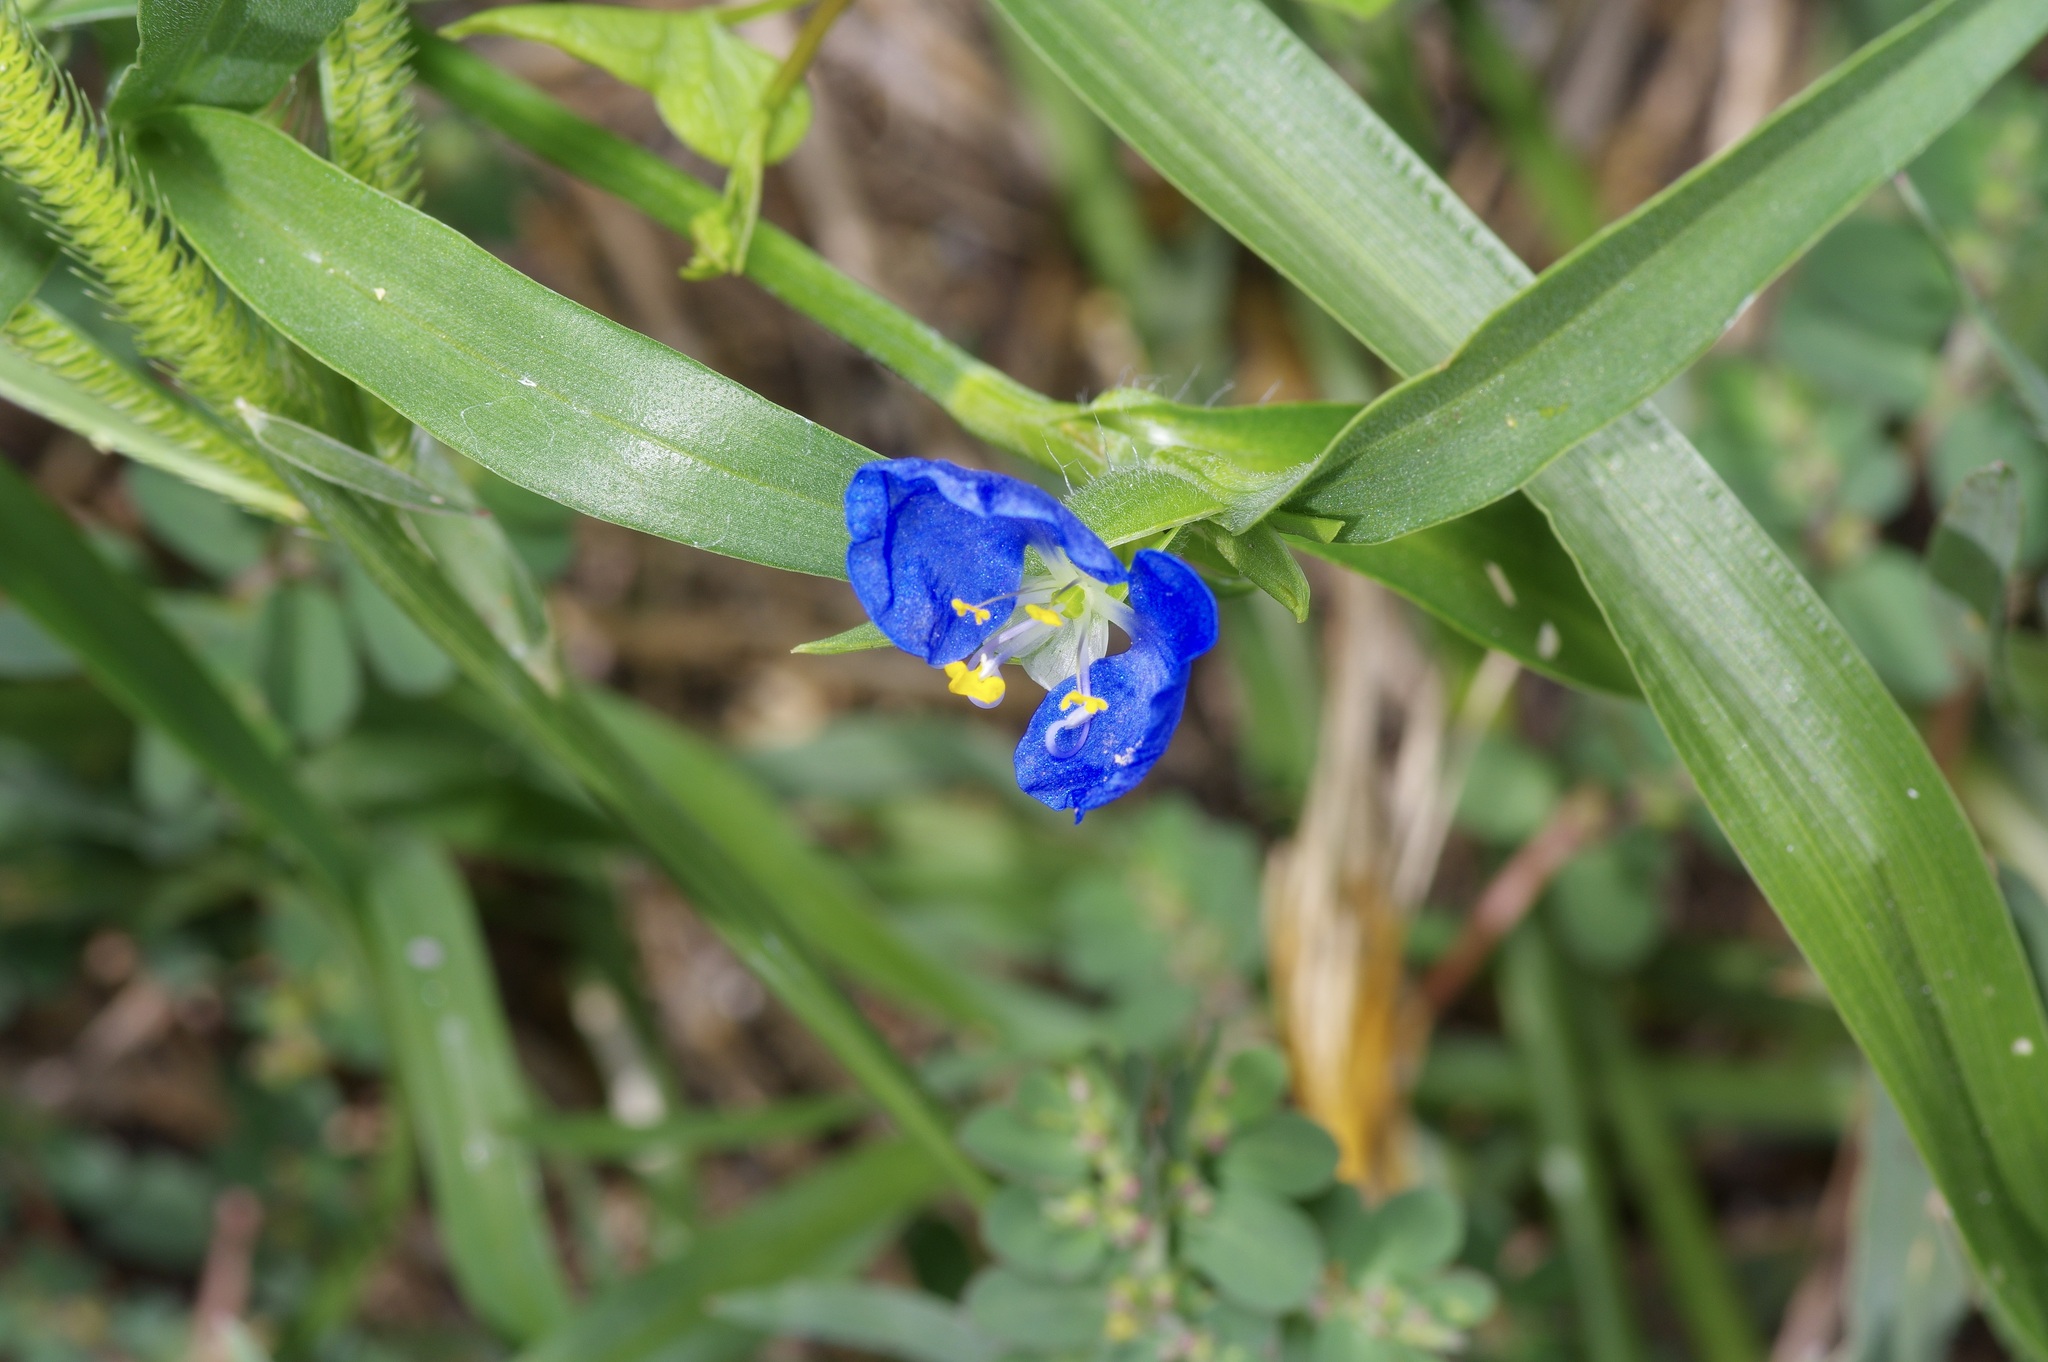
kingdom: Plantae
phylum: Tracheophyta
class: Liliopsida
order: Commelinales
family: Commelinaceae
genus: Commelina
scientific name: Commelina erecta
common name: Blousel blommetjie
